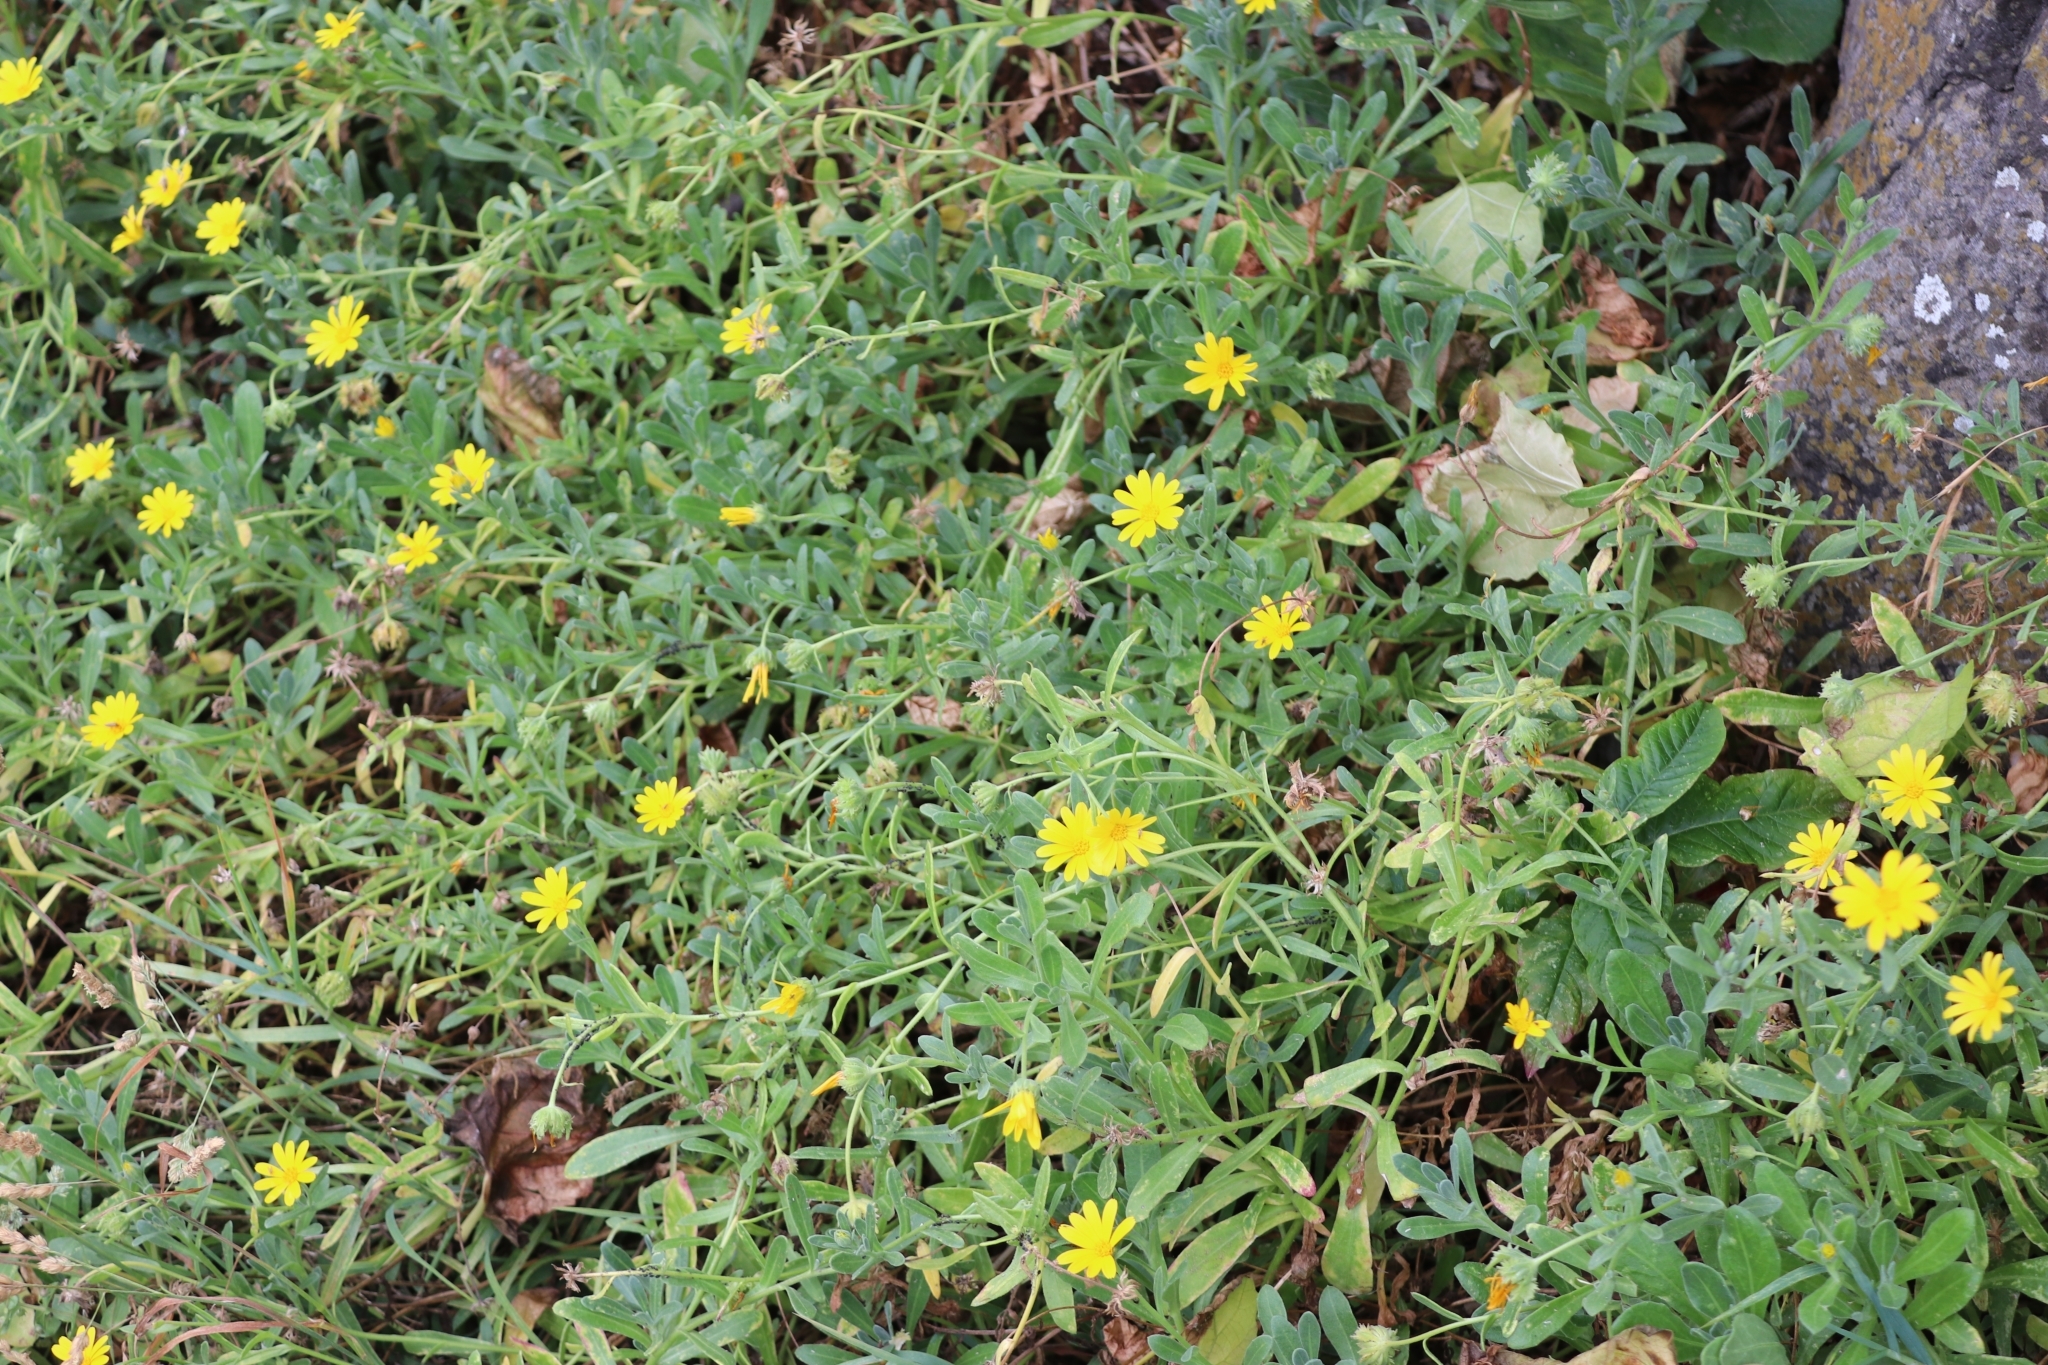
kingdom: Plantae
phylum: Tracheophyta
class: Magnoliopsida
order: Asterales
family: Asteraceae
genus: Calendula
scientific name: Calendula suffruticosa
